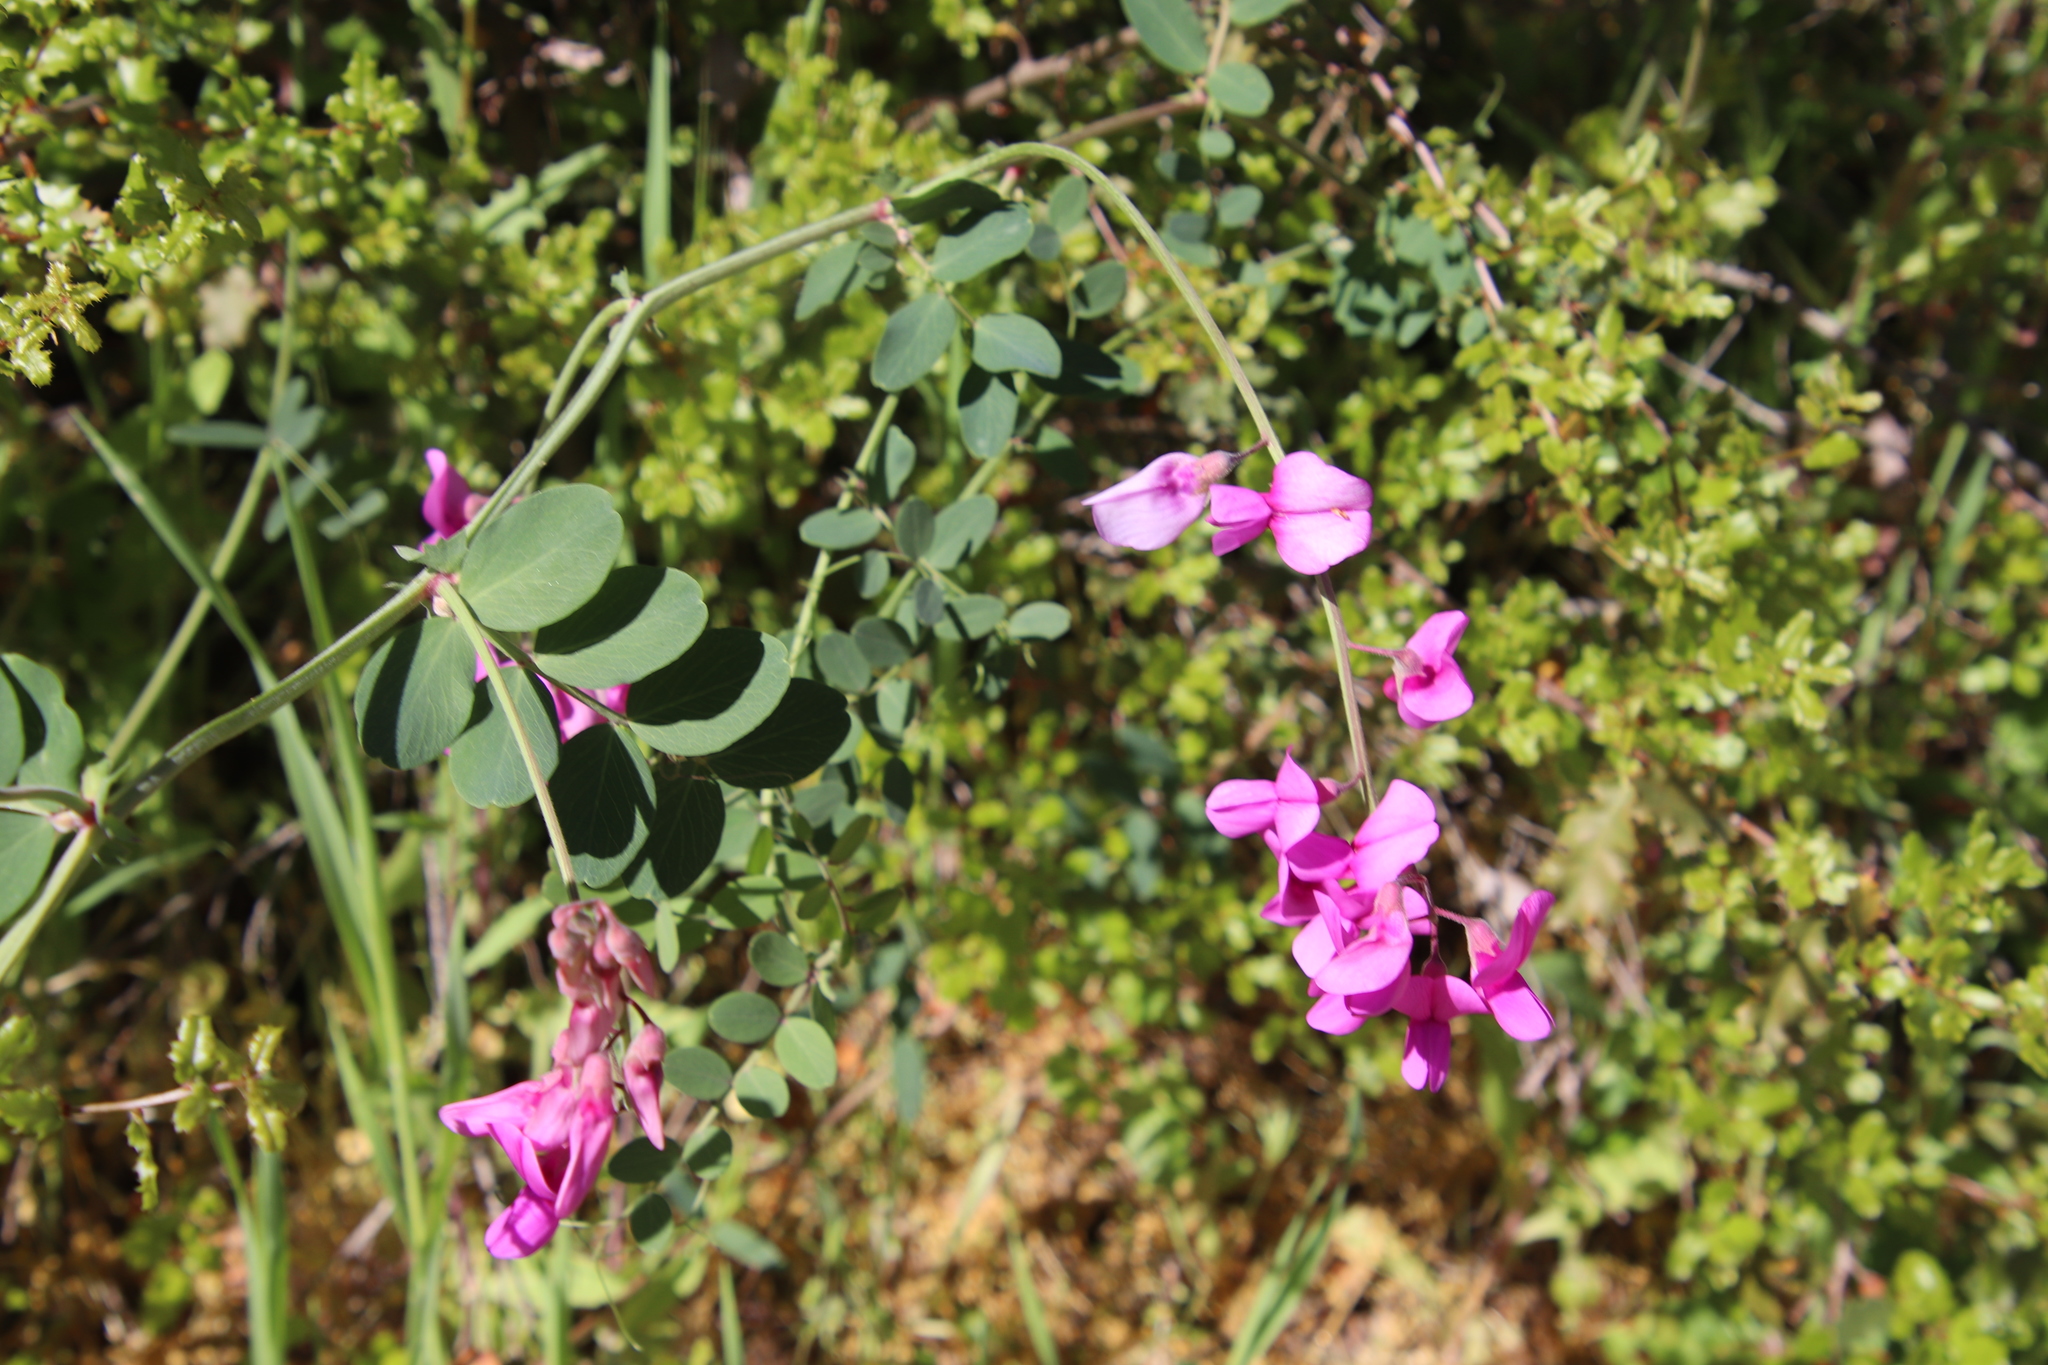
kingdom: Plantae
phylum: Tracheophyta
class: Magnoliopsida
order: Fabales
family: Fabaceae
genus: Lathyrus
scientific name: Lathyrus vestitus
